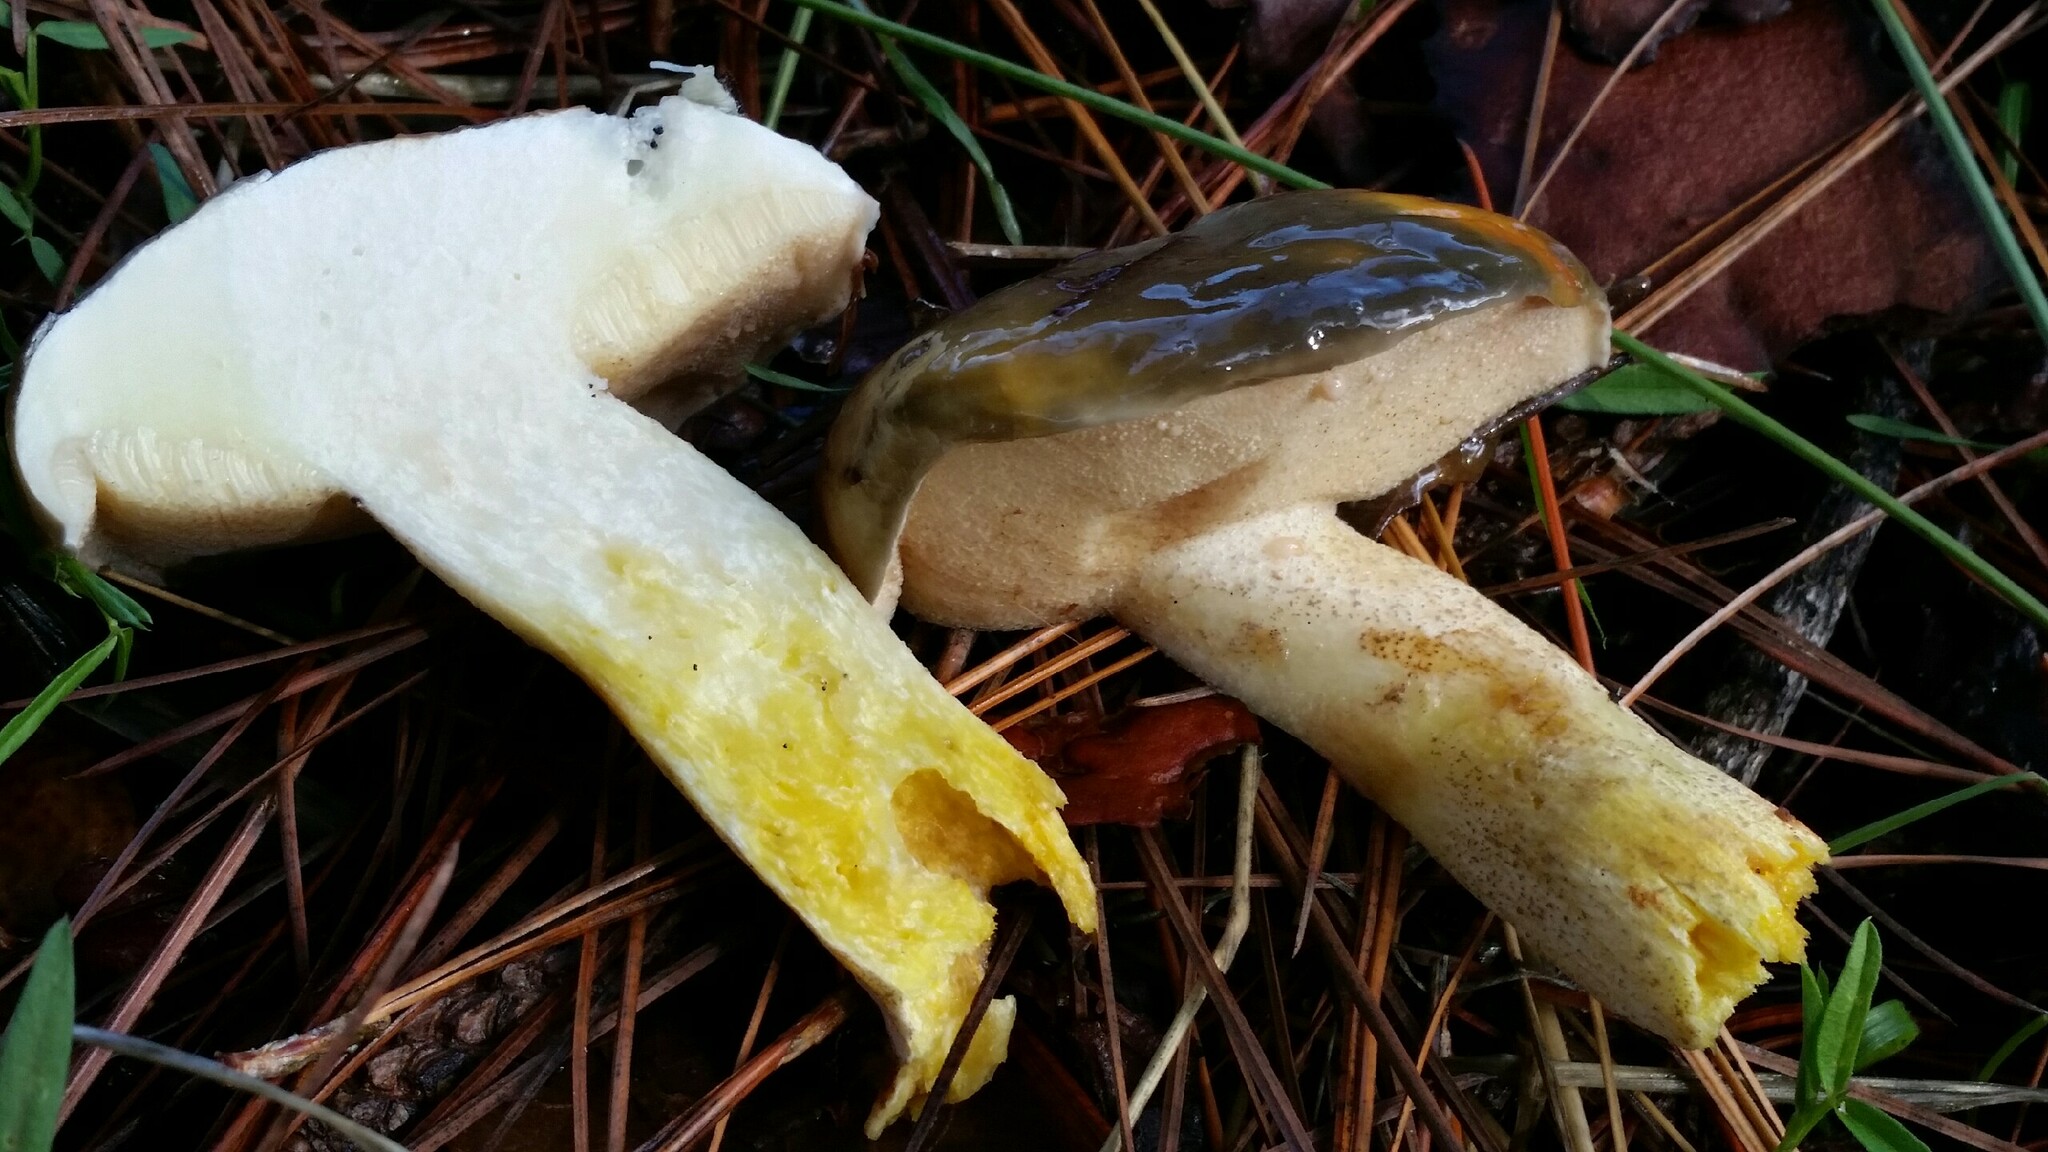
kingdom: Fungi
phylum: Basidiomycota
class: Agaricomycetes
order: Boletales
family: Suillaceae
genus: Suillus
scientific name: Suillus pungens
